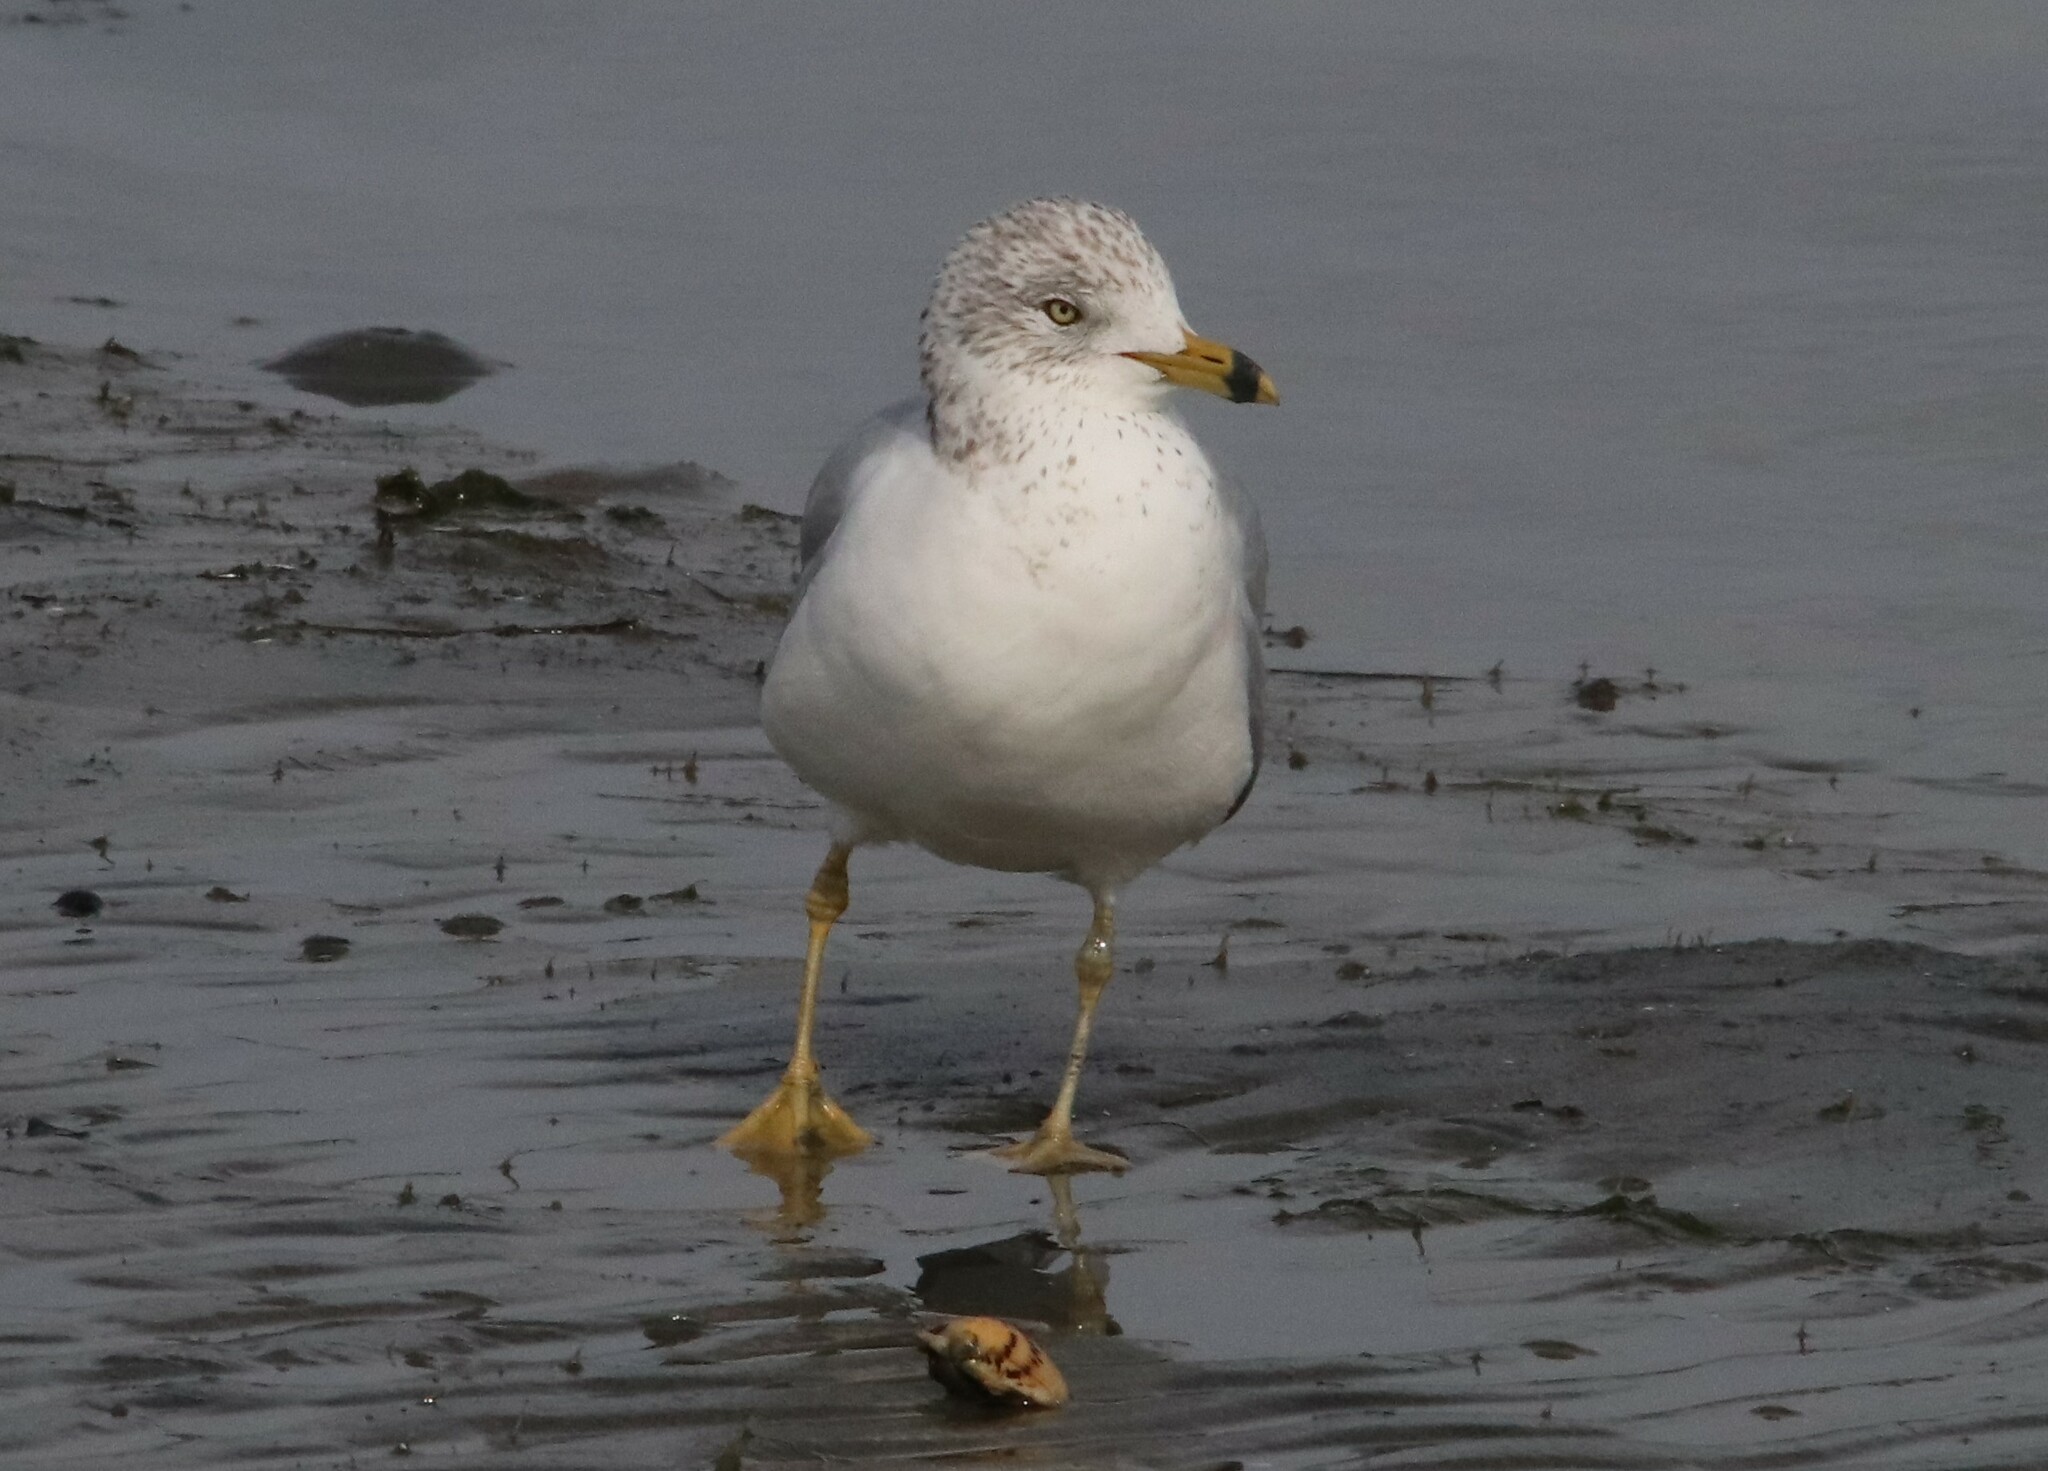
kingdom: Animalia
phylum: Chordata
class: Aves
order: Charadriiformes
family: Laridae
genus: Larus
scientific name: Larus delawarensis
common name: Ring-billed gull
